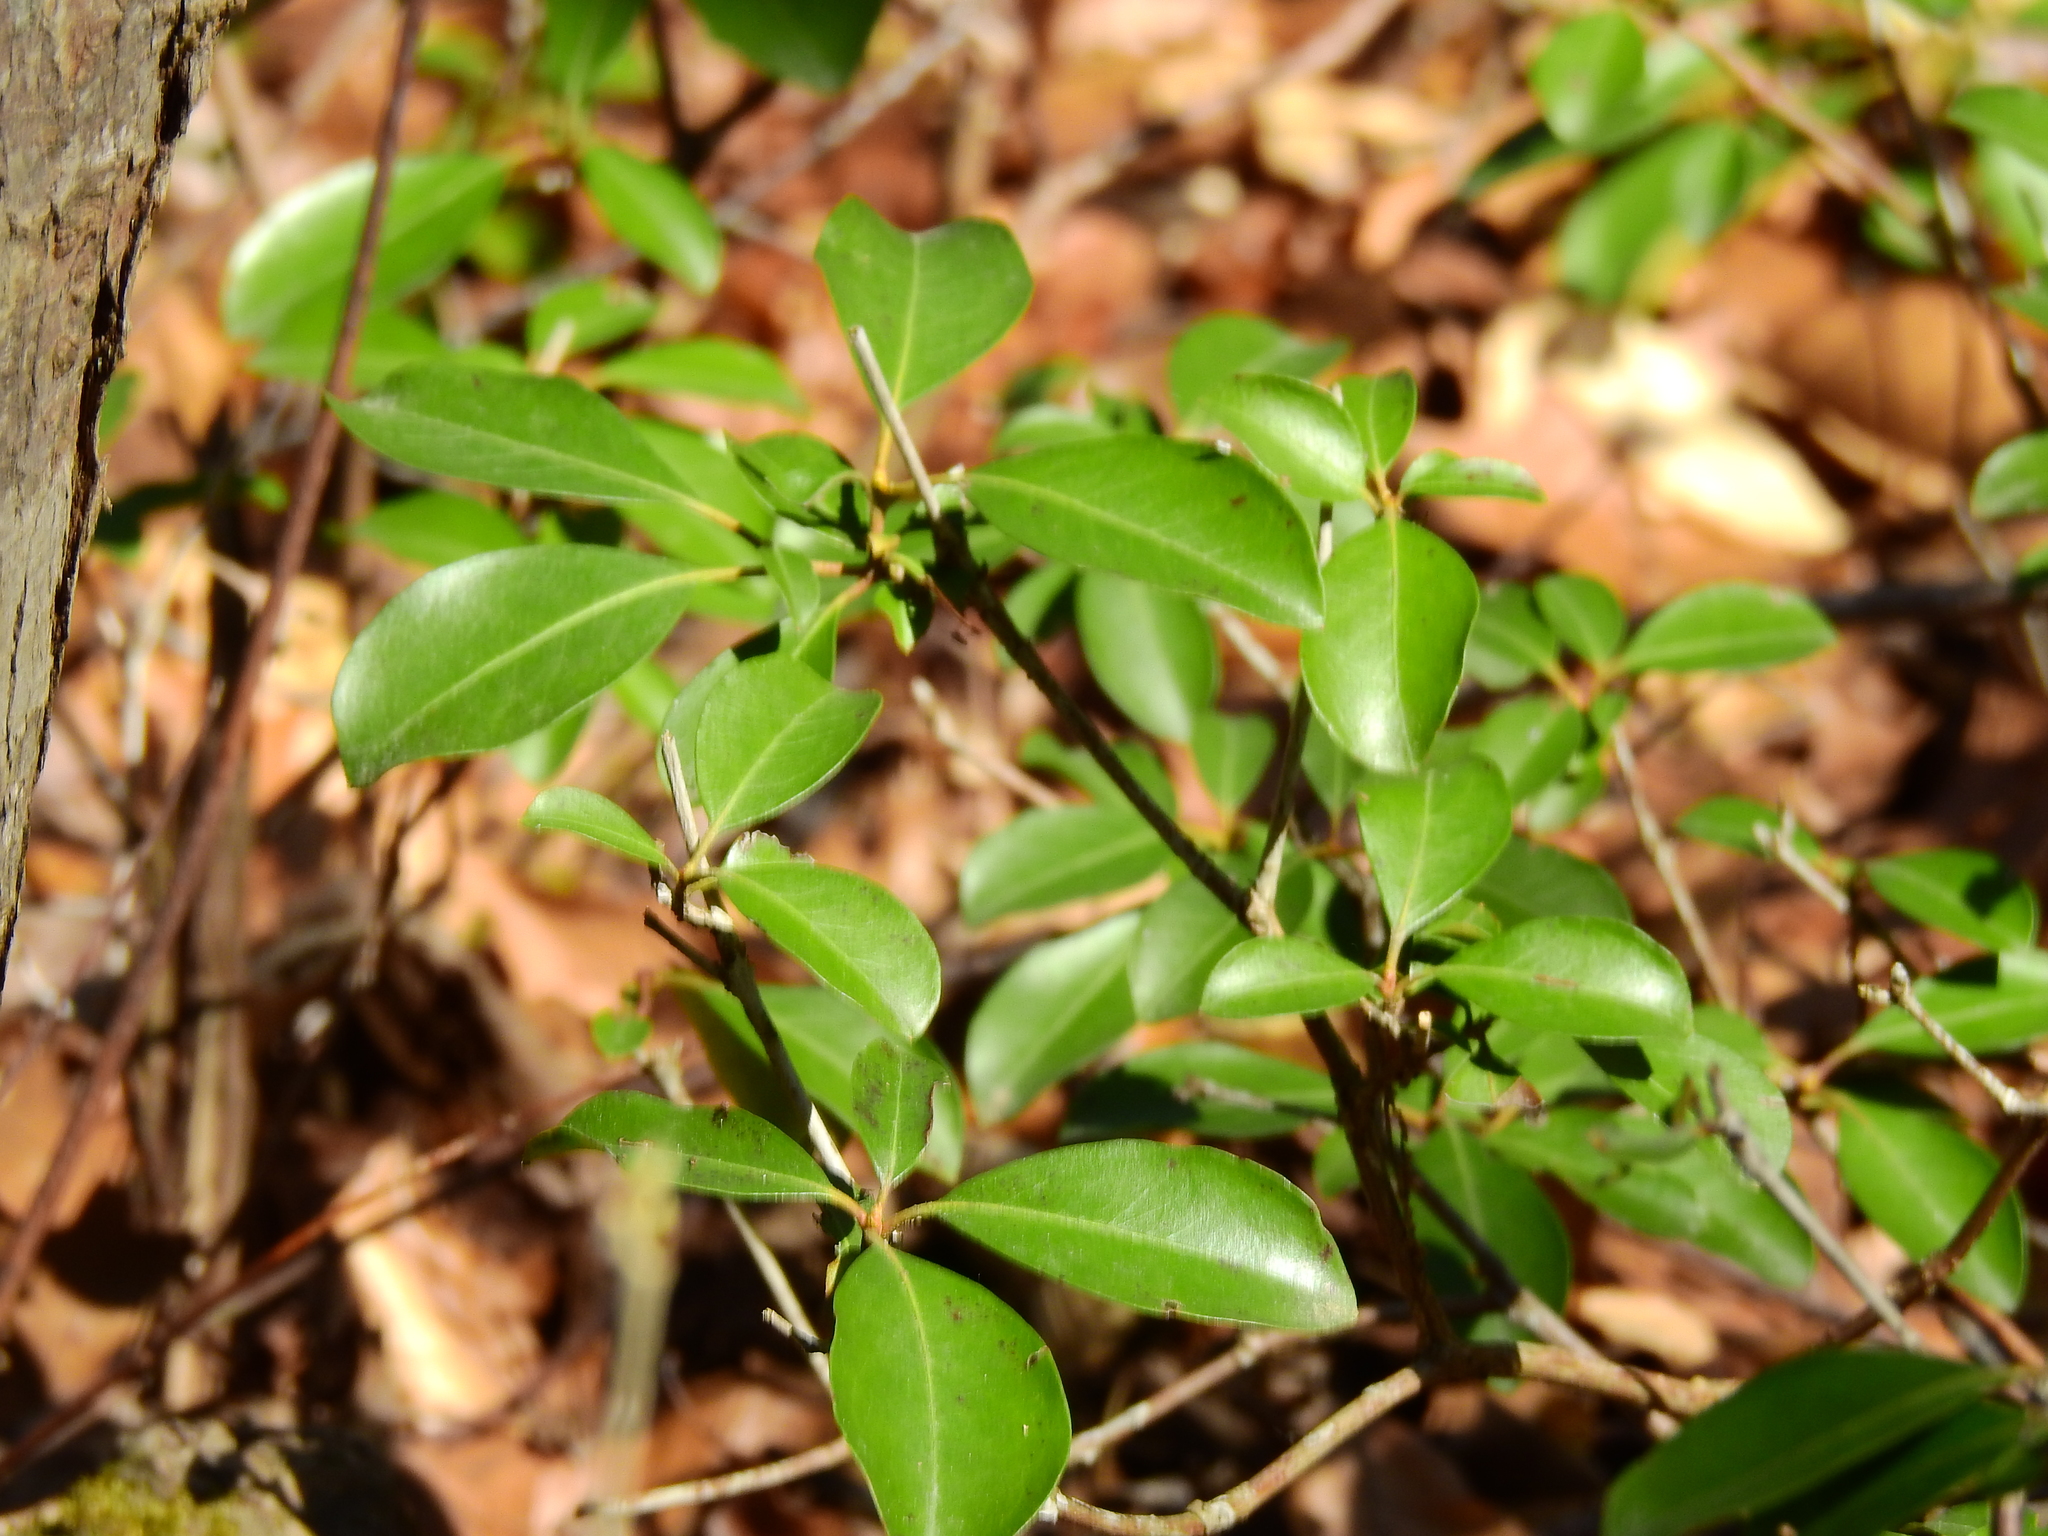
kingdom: Plantae
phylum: Tracheophyta
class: Magnoliopsida
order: Ericales
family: Ericaceae
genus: Kalmia
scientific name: Kalmia latifolia
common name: Mountain-laurel
